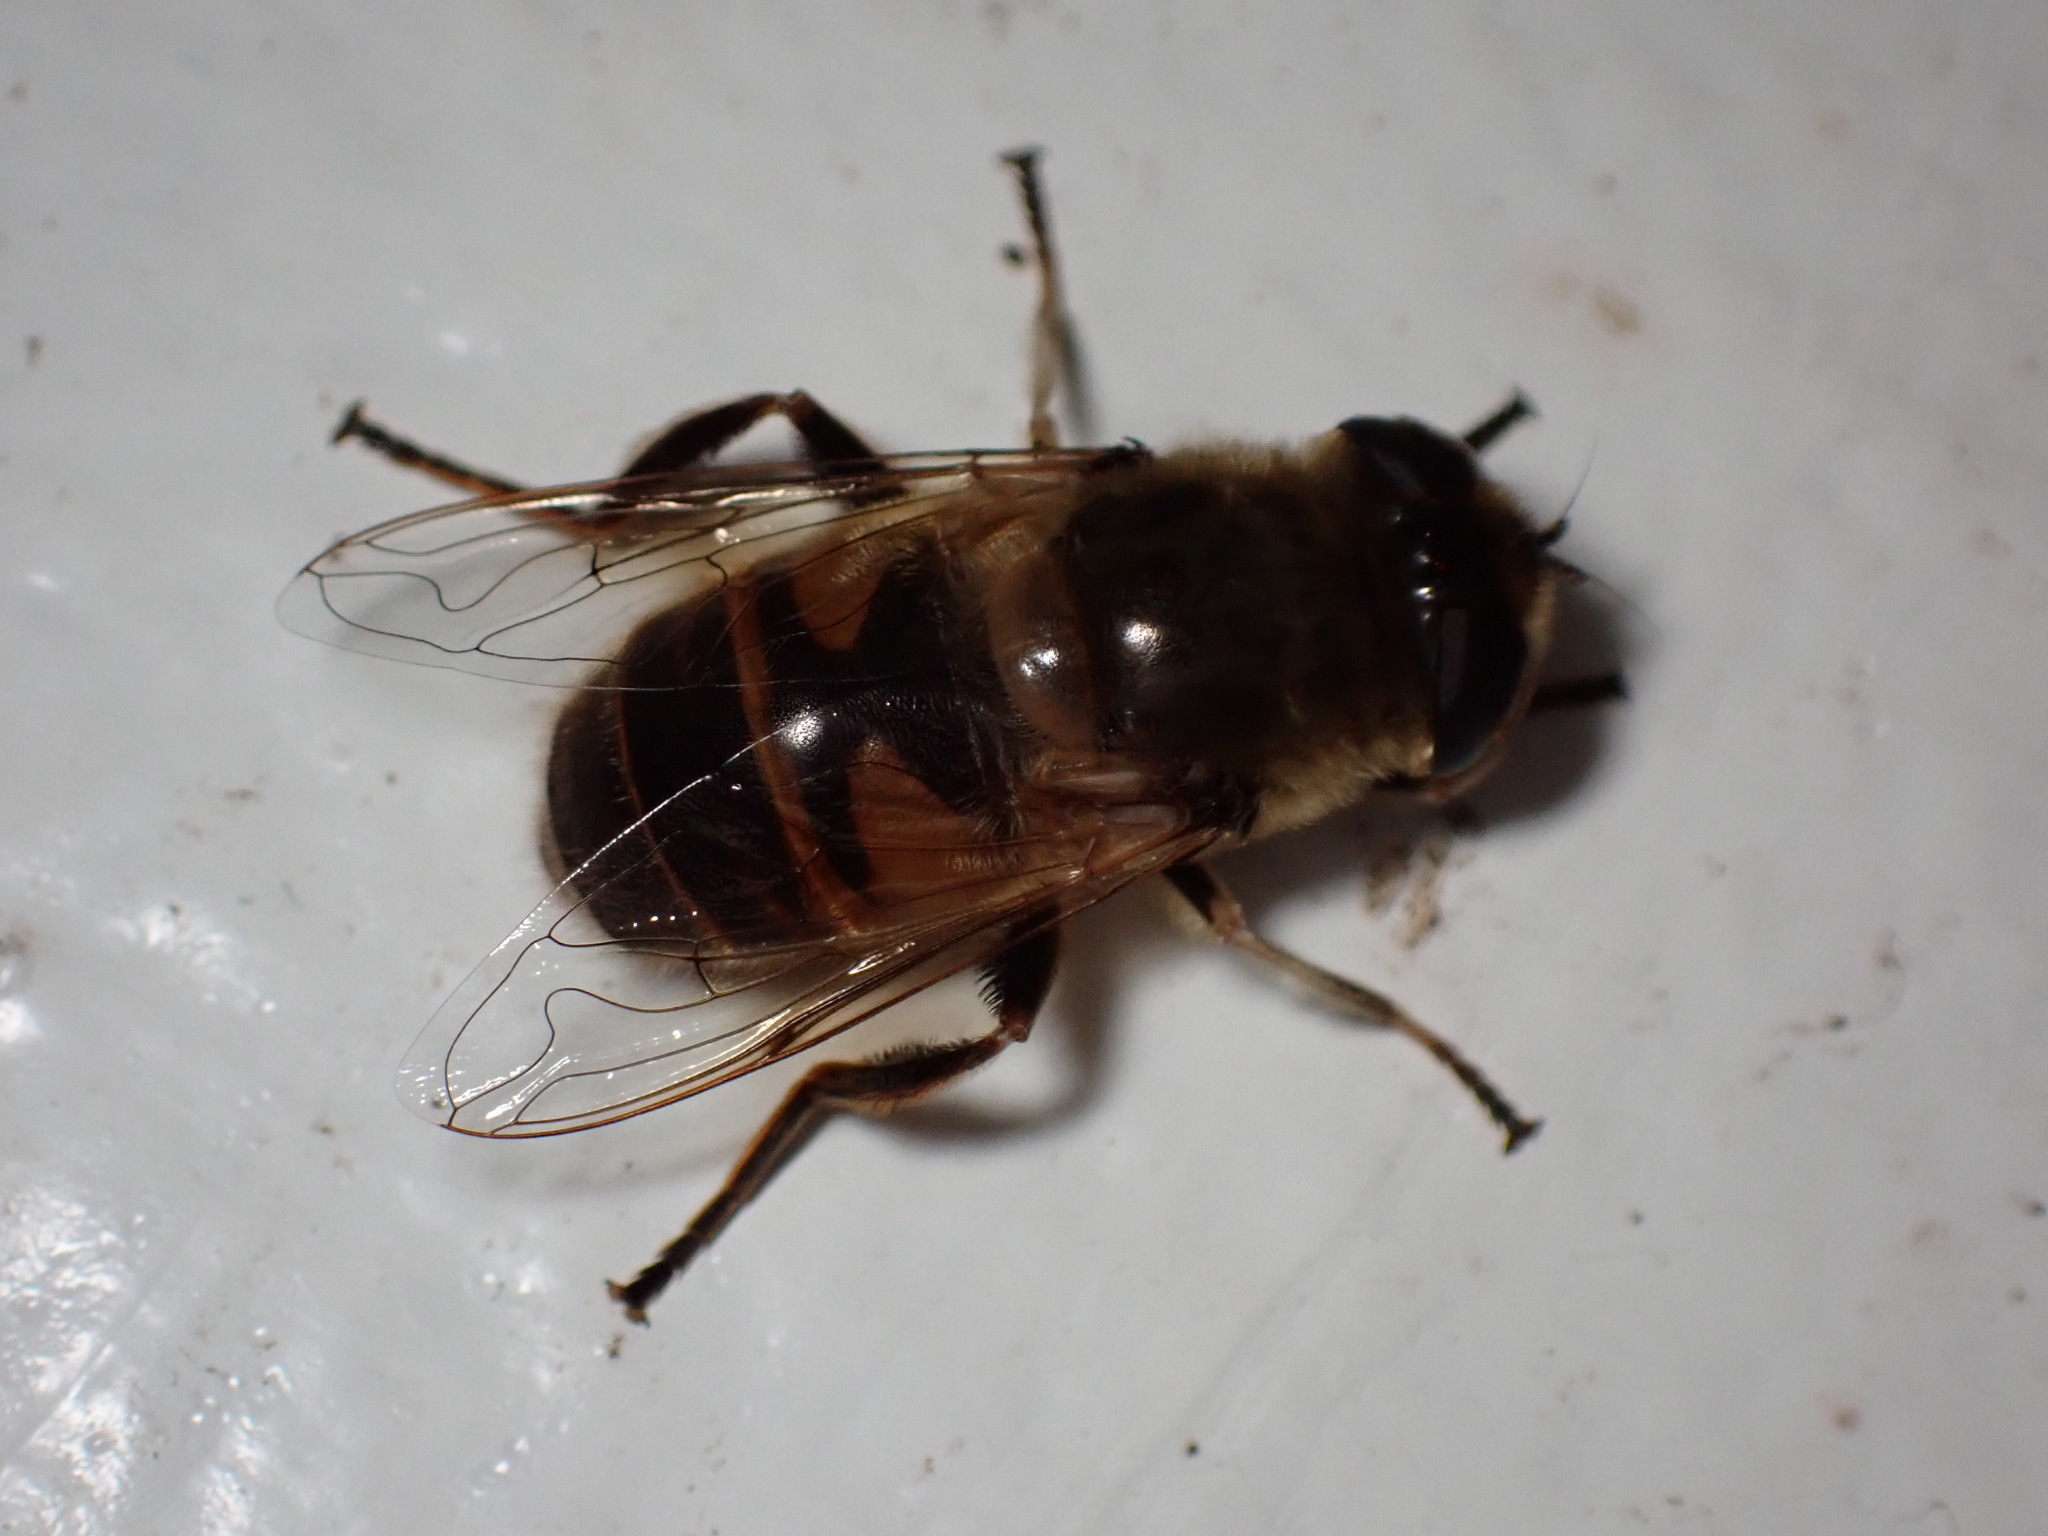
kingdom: Animalia
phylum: Arthropoda
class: Insecta
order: Diptera
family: Syrphidae
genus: Eristalis
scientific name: Eristalis tenax
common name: Drone fly
